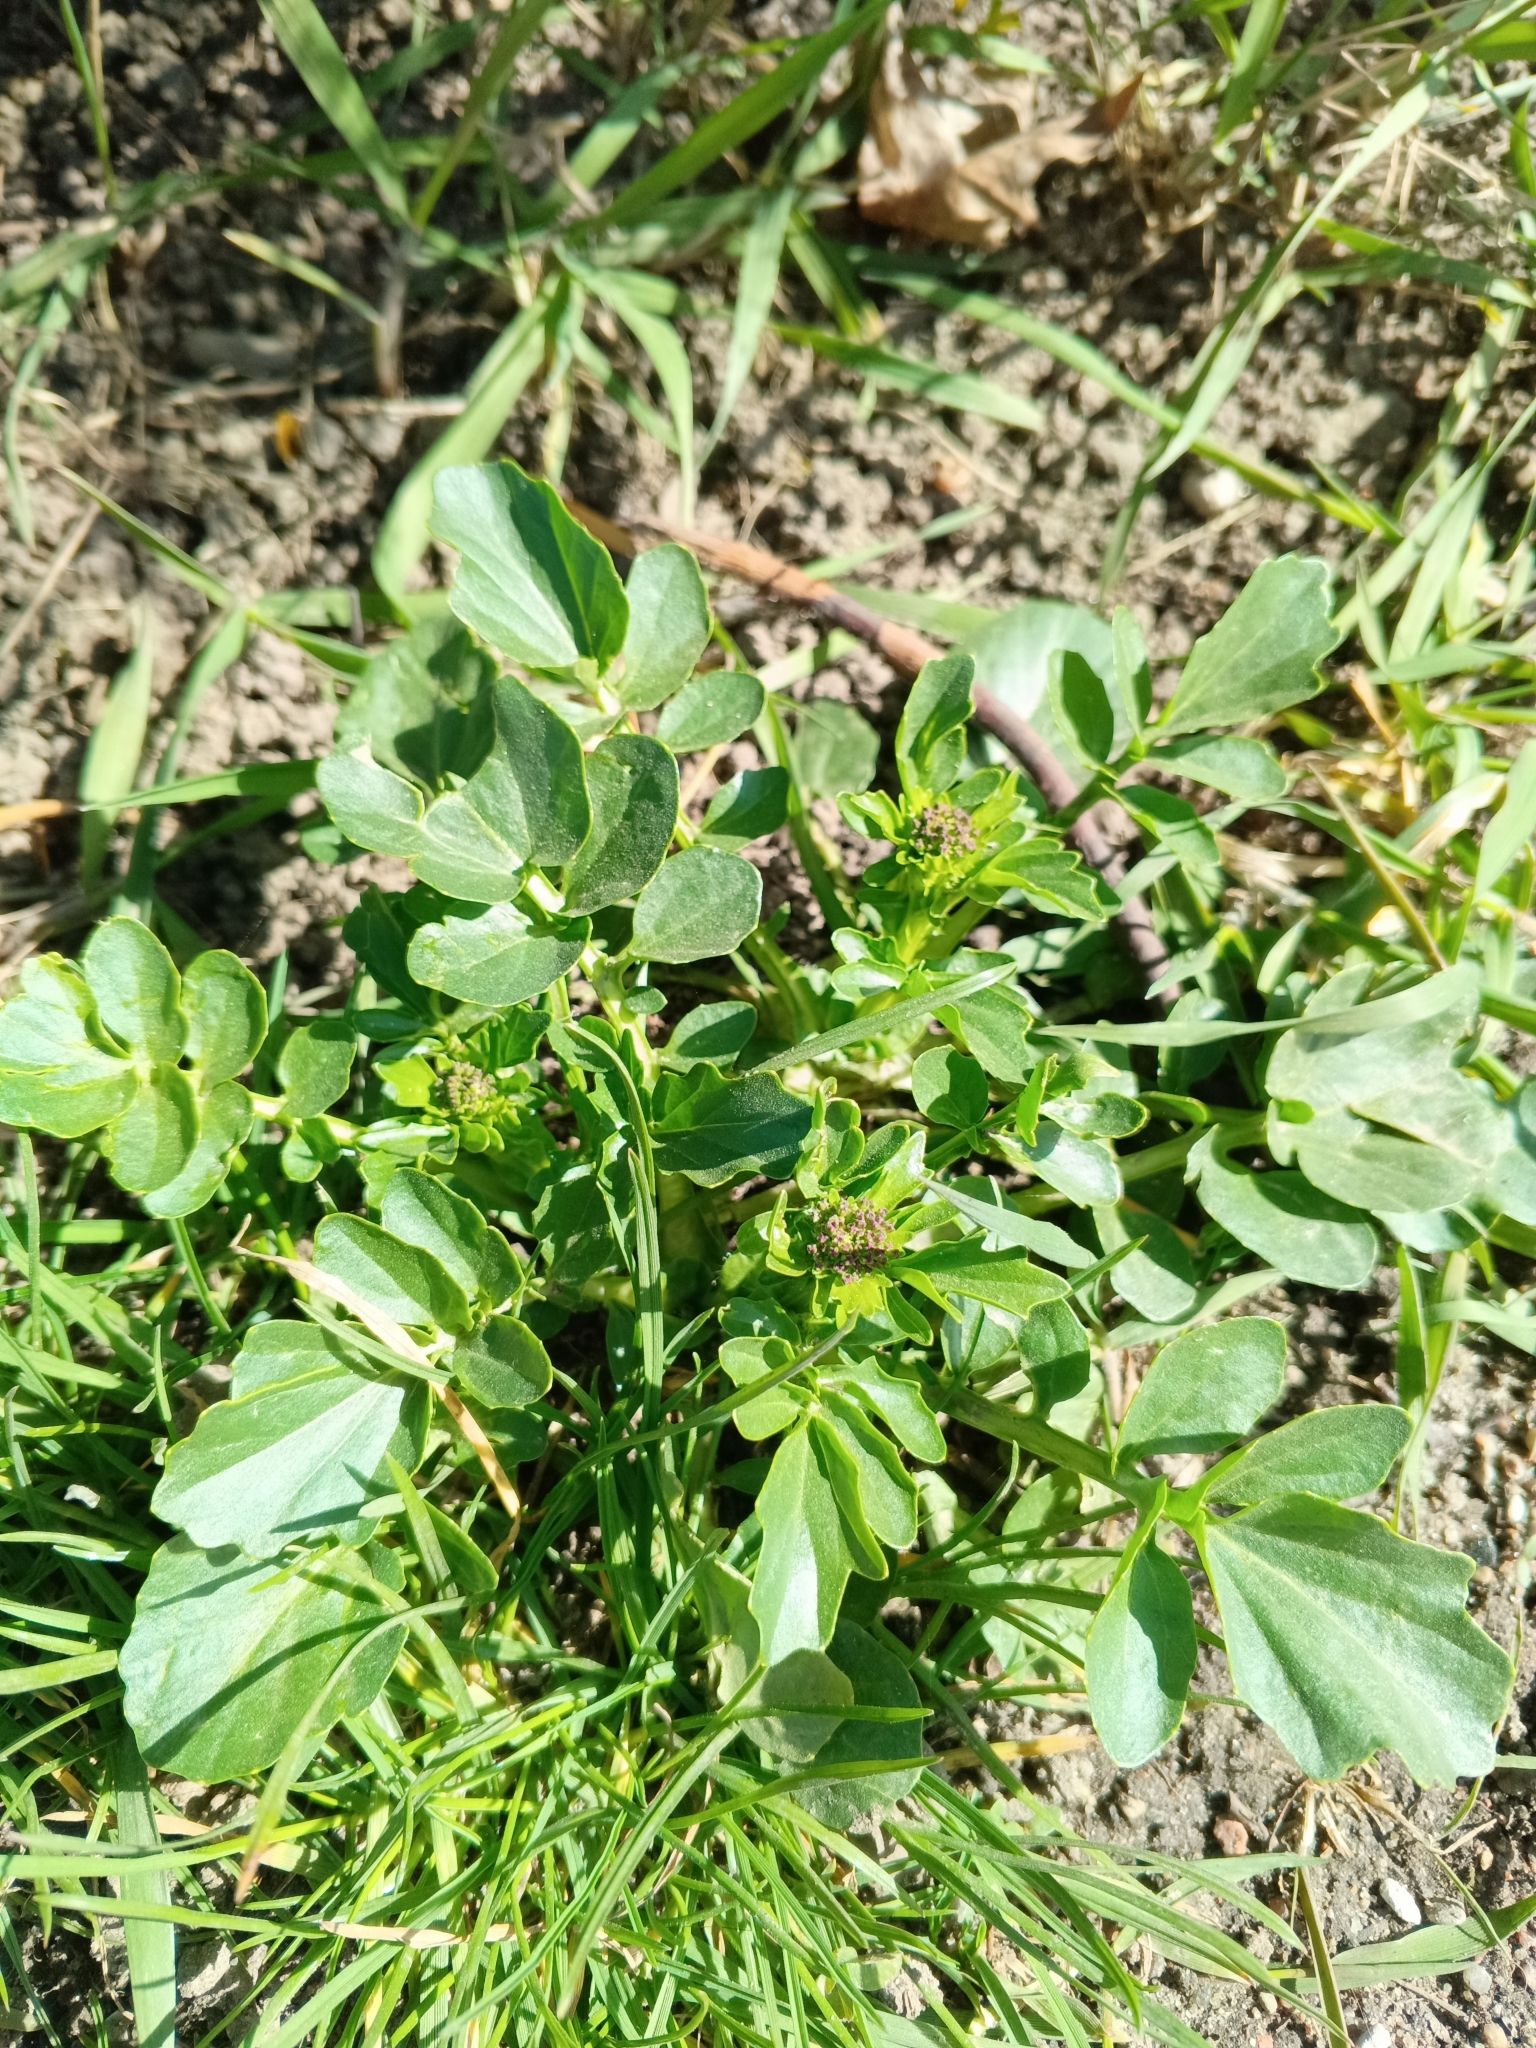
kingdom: Plantae
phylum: Tracheophyta
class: Magnoliopsida
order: Brassicales
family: Brassicaceae
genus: Barbarea
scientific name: Barbarea vulgaris
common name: Cressy-greens
